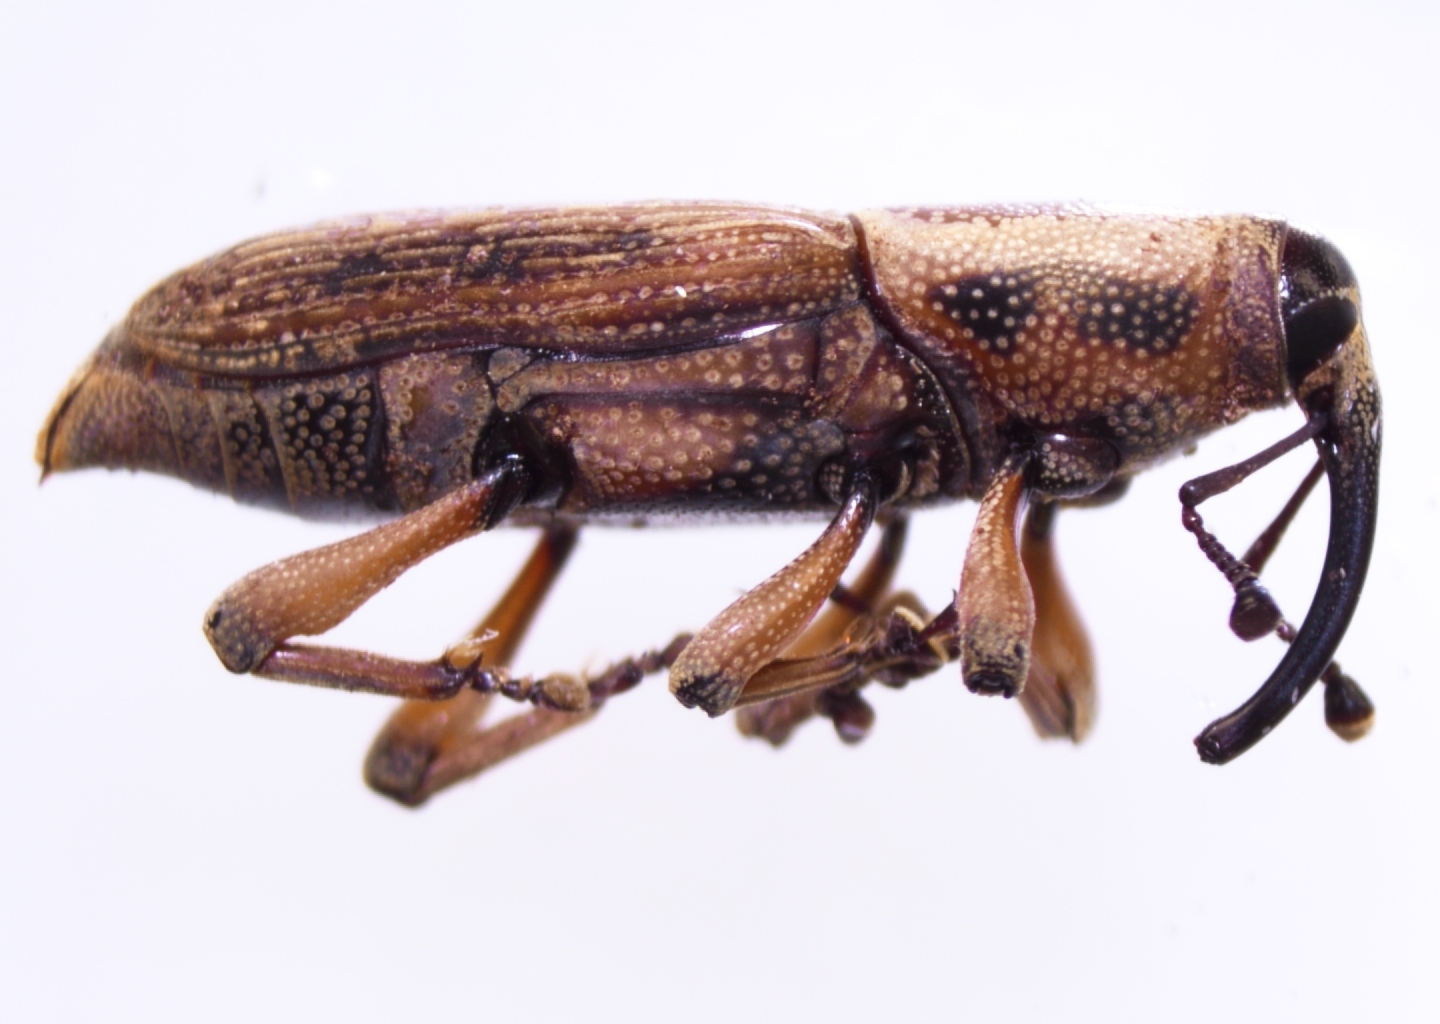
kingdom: Animalia
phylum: Arthropoda
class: Insecta
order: Coleoptera
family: Dryophthoridae
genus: Rhabdoscelus
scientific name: Rhabdoscelus obscurus
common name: Cane weevil borer
